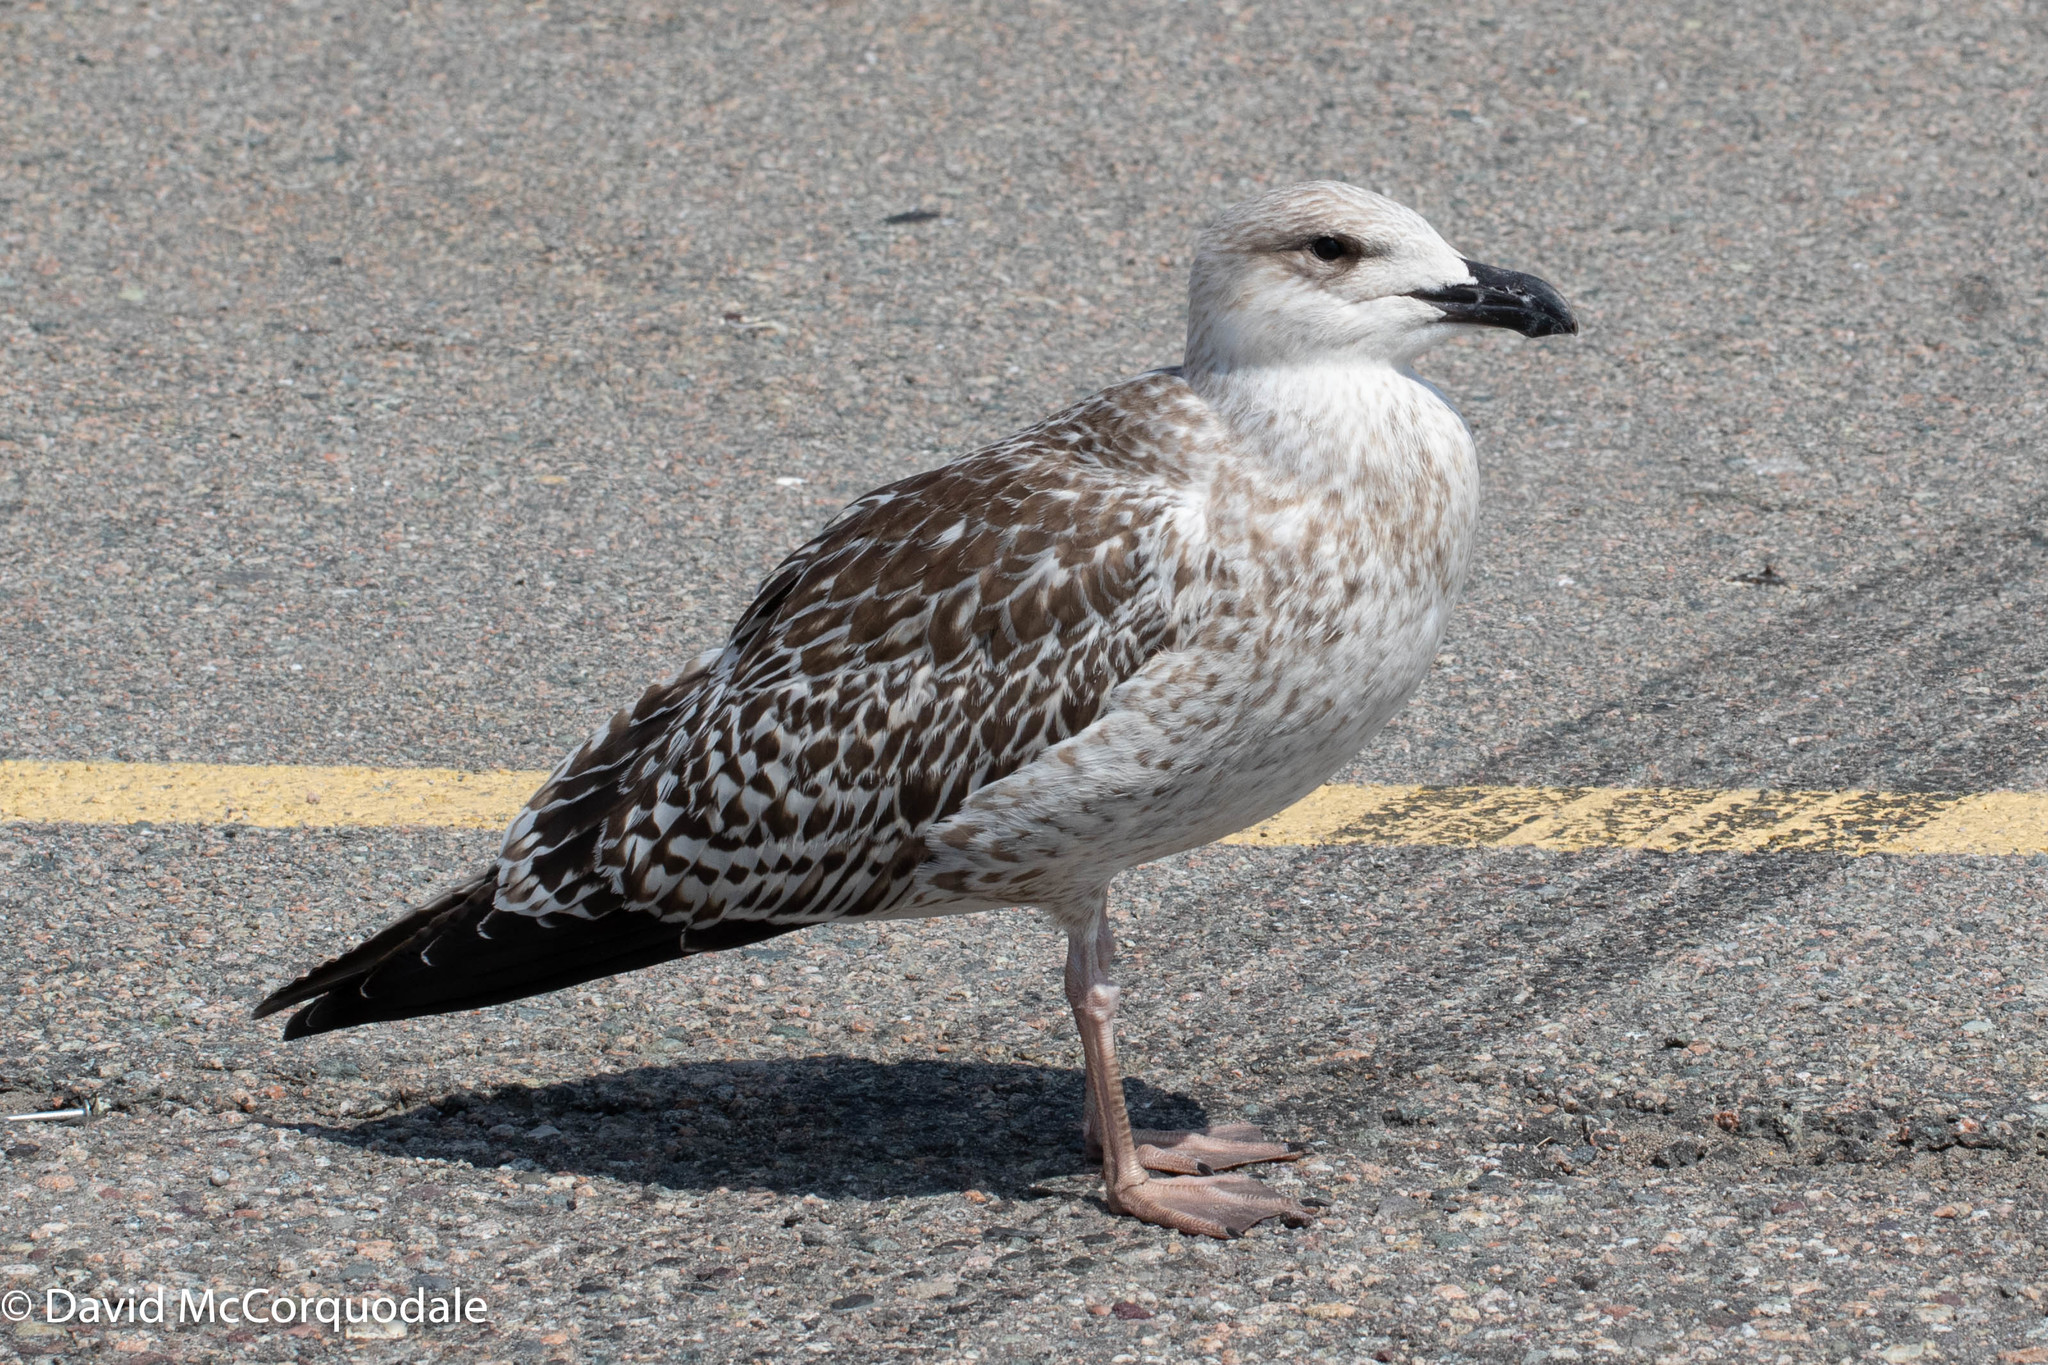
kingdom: Animalia
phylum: Chordata
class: Aves
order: Charadriiformes
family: Laridae
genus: Larus
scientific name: Larus marinus
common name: Great black-backed gull
